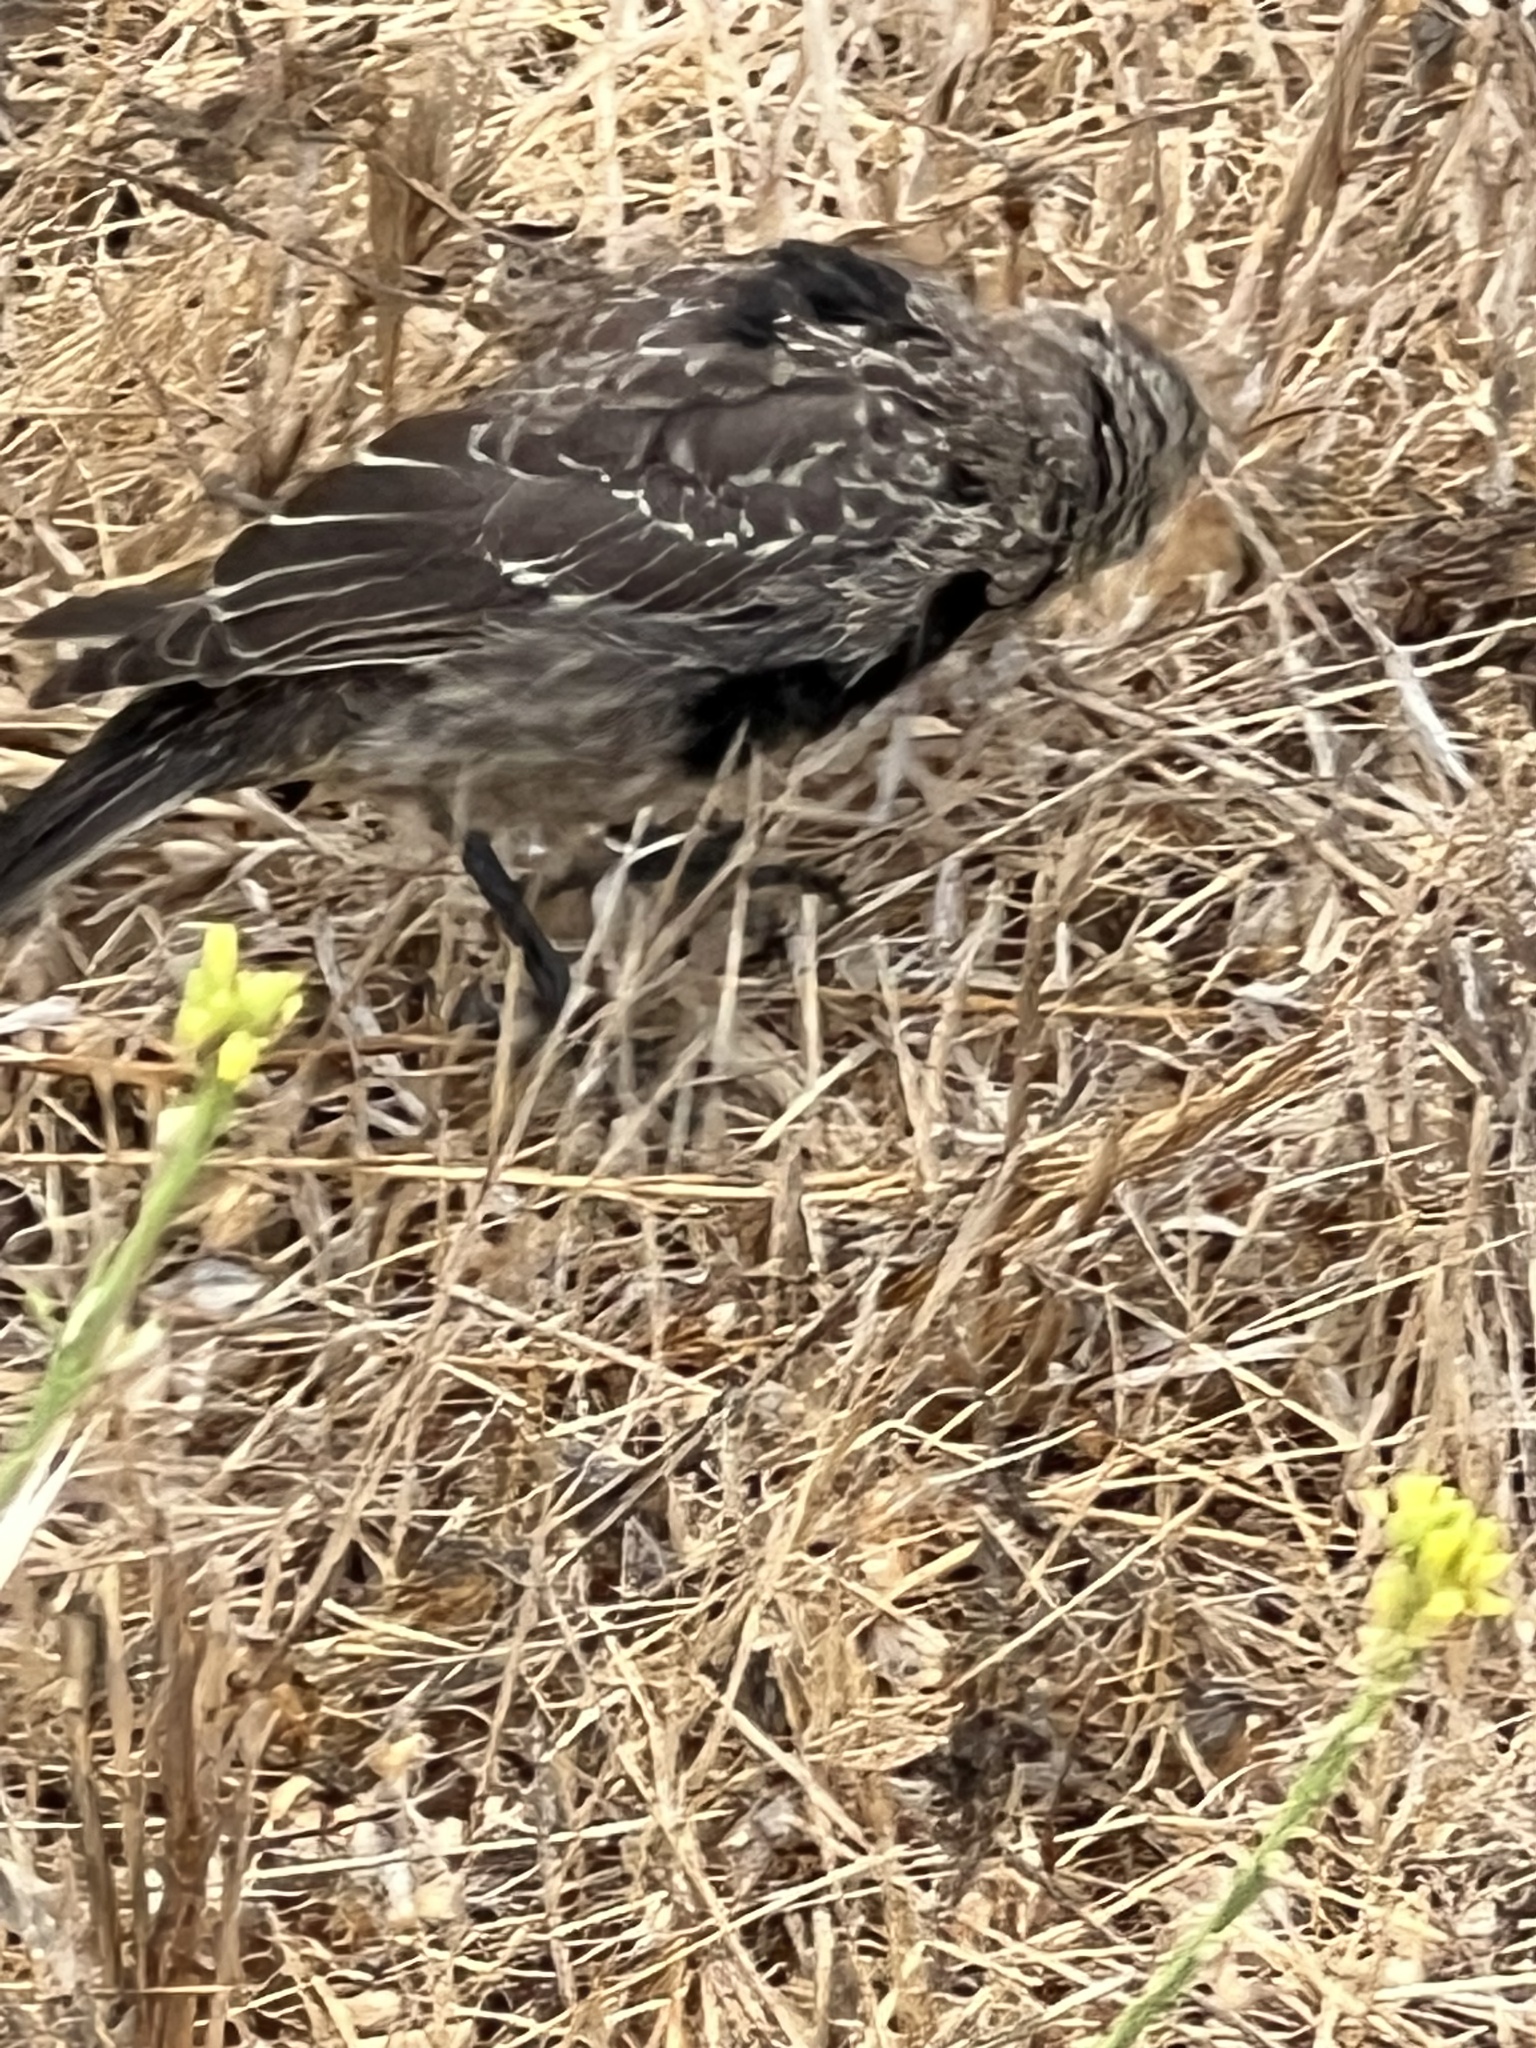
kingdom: Animalia
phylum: Chordata
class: Aves
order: Passeriformes
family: Icteridae
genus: Molothrus
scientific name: Molothrus ater
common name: Brown-headed cowbird
